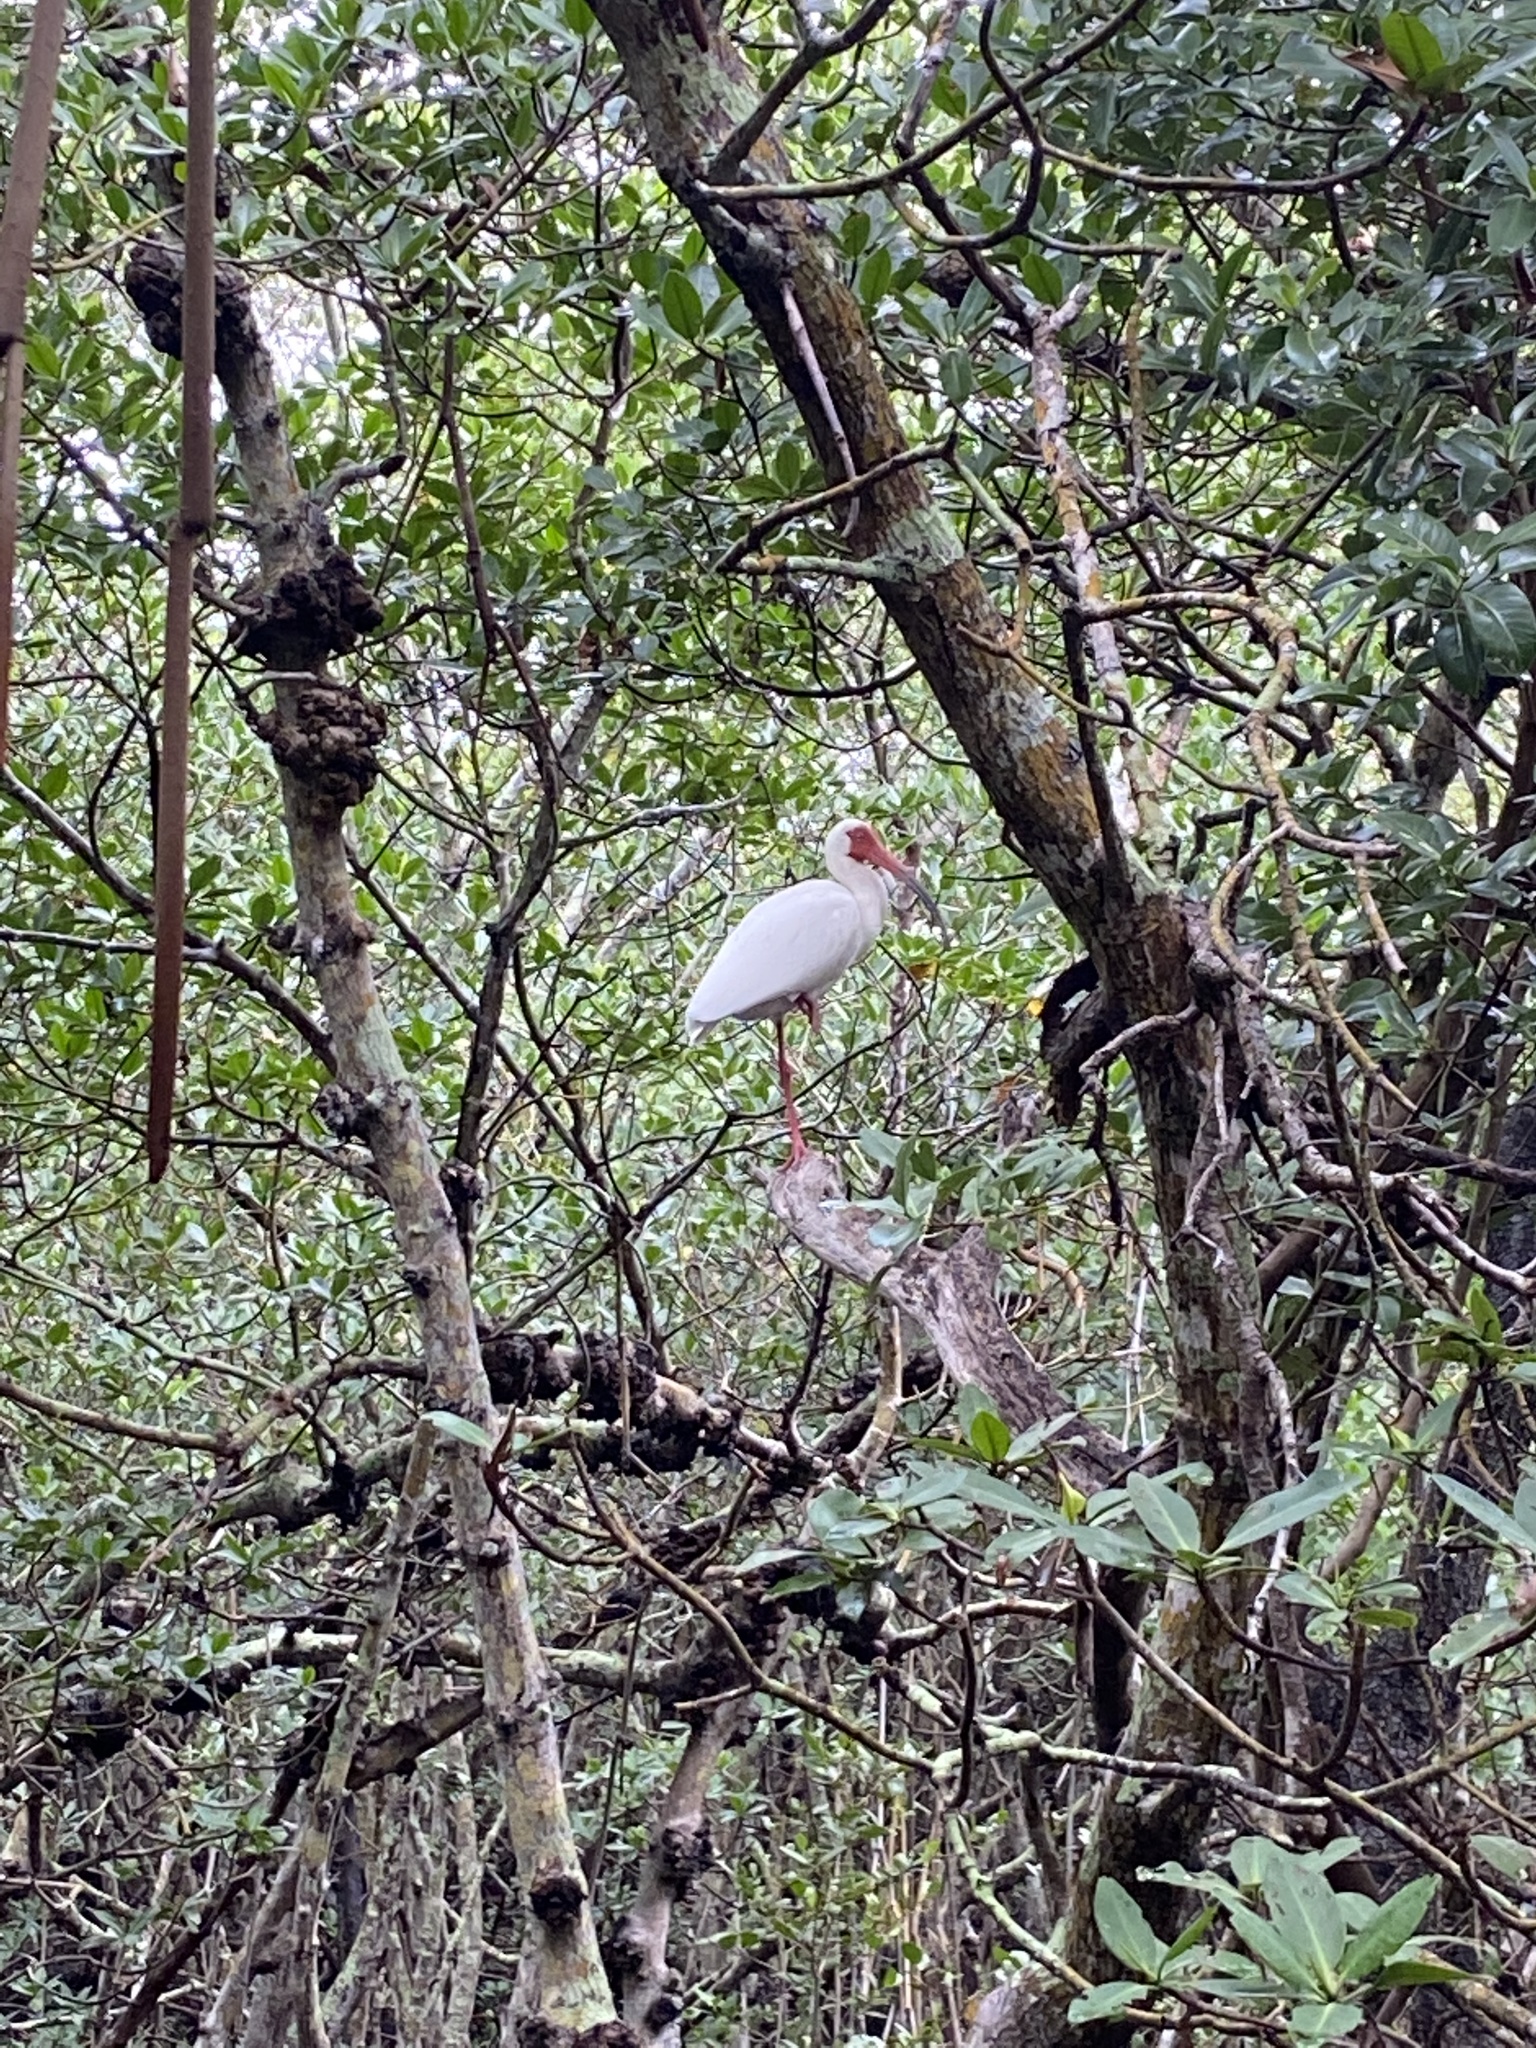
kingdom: Animalia
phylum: Chordata
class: Aves
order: Pelecaniformes
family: Threskiornithidae
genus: Eudocimus
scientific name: Eudocimus albus
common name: White ibis
